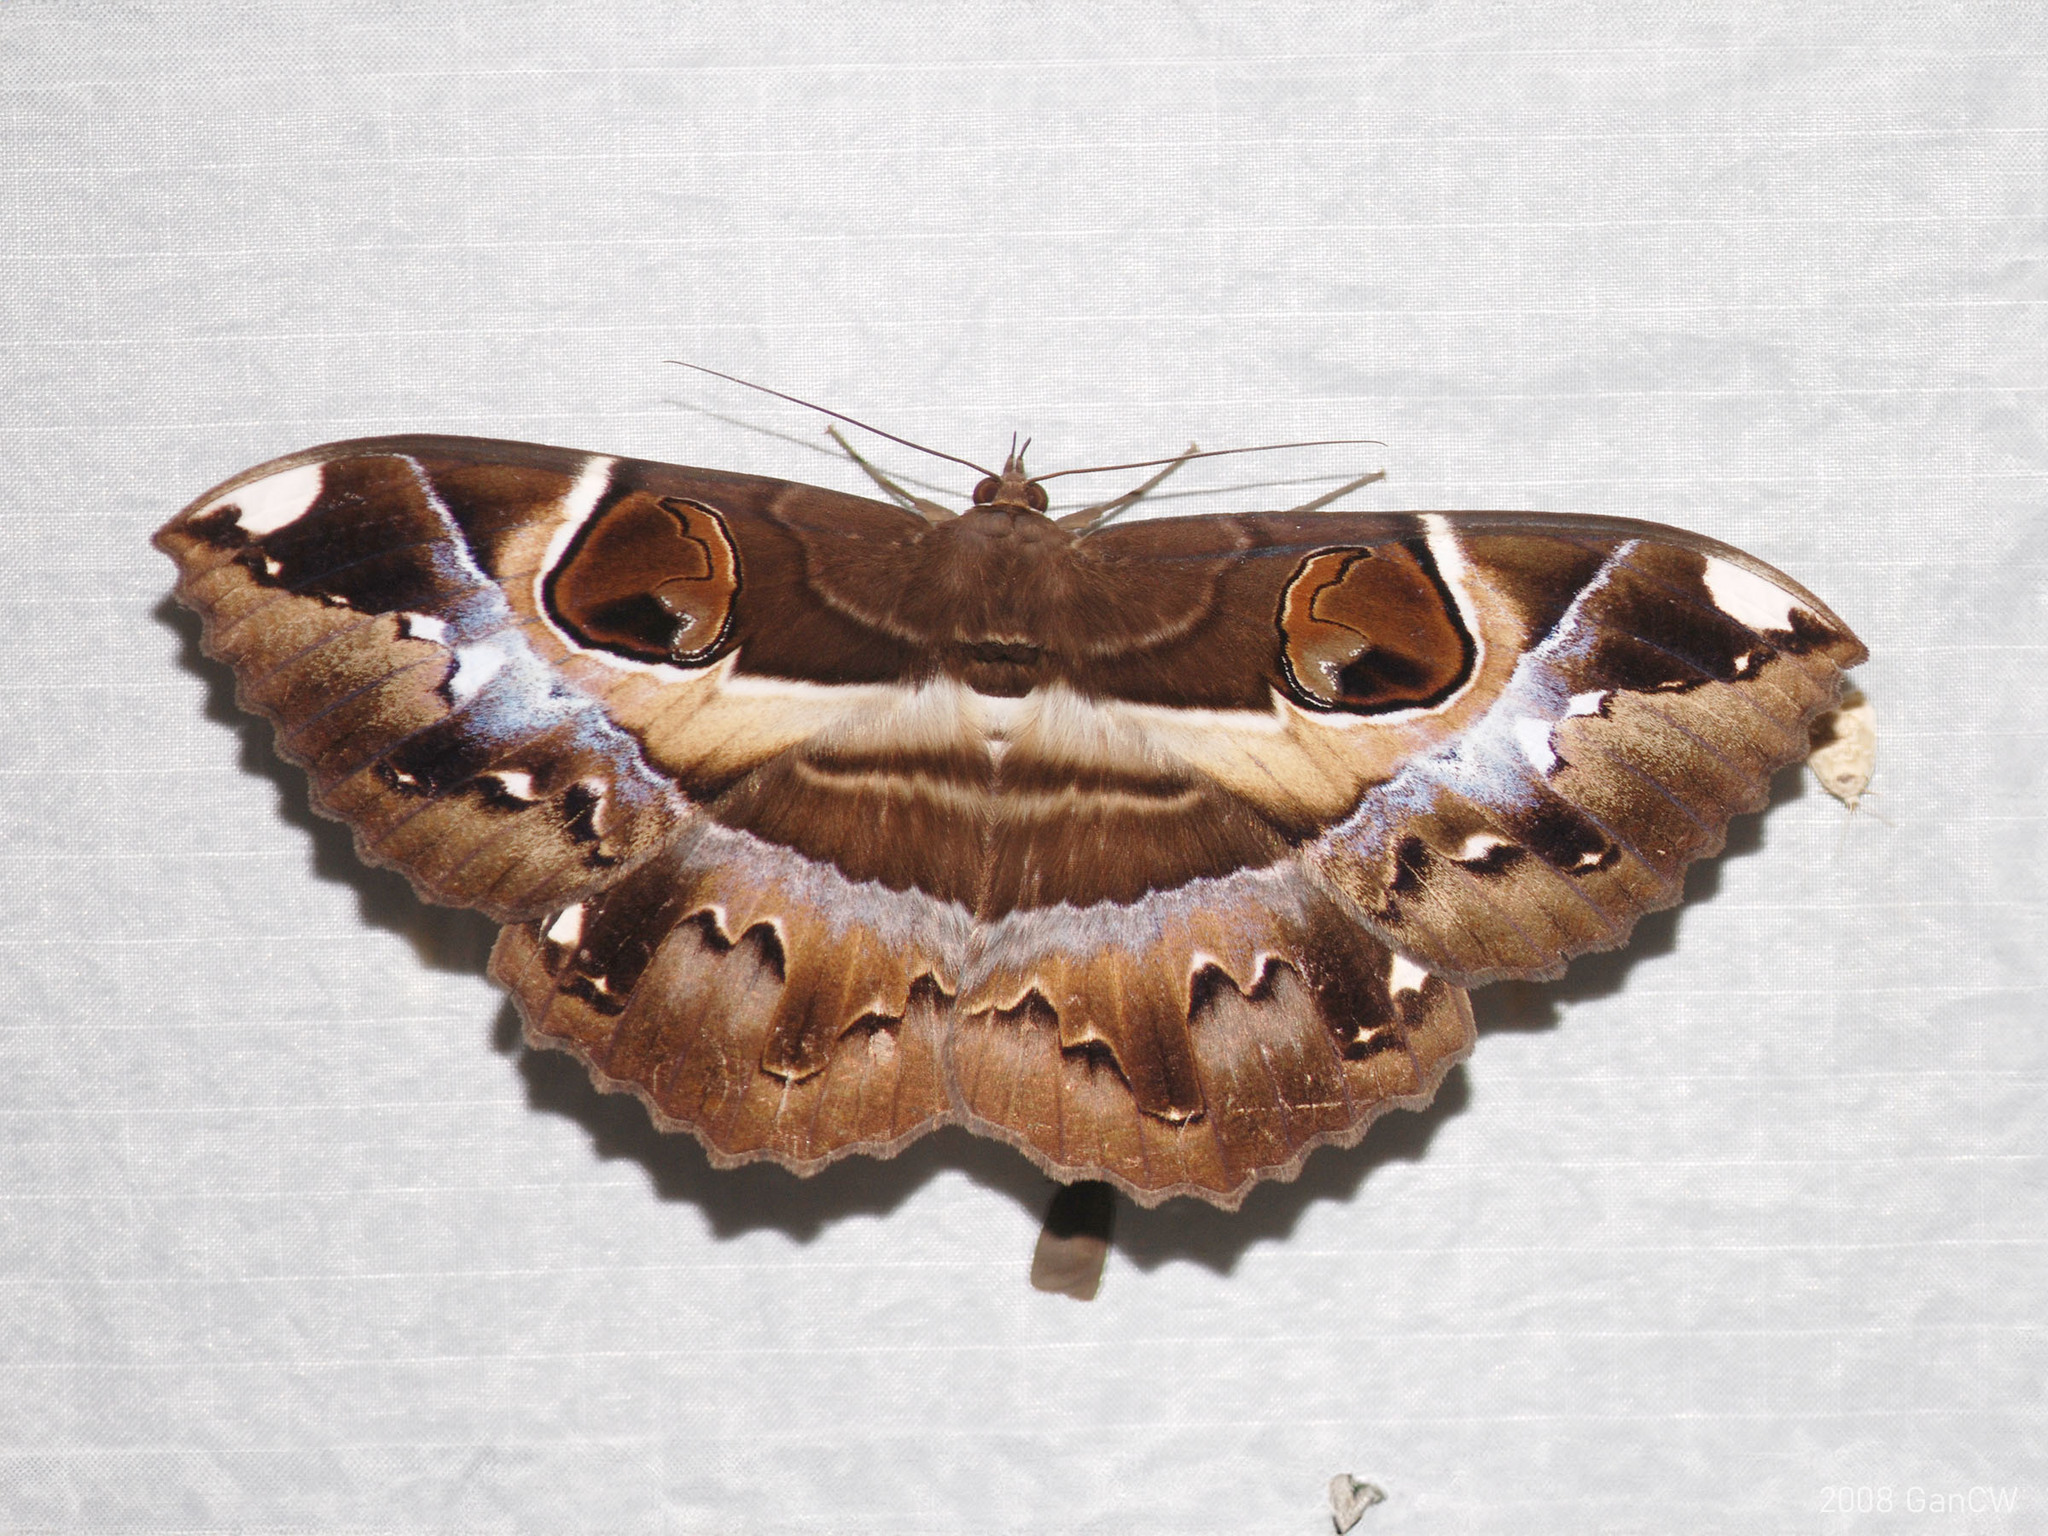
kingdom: Animalia
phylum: Arthropoda
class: Insecta
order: Lepidoptera
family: Erebidae
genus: Erebus
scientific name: Erebus ephesperis
